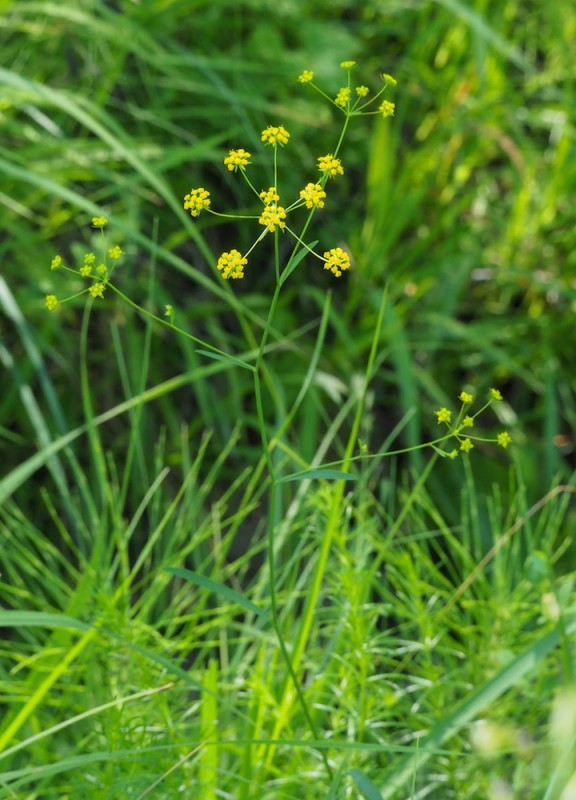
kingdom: Plantae
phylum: Tracheophyta
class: Magnoliopsida
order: Apiales
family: Apiaceae
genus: Bupleurum
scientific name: Bupleurum falcatum
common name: Sickle-leaved hare's-ear
